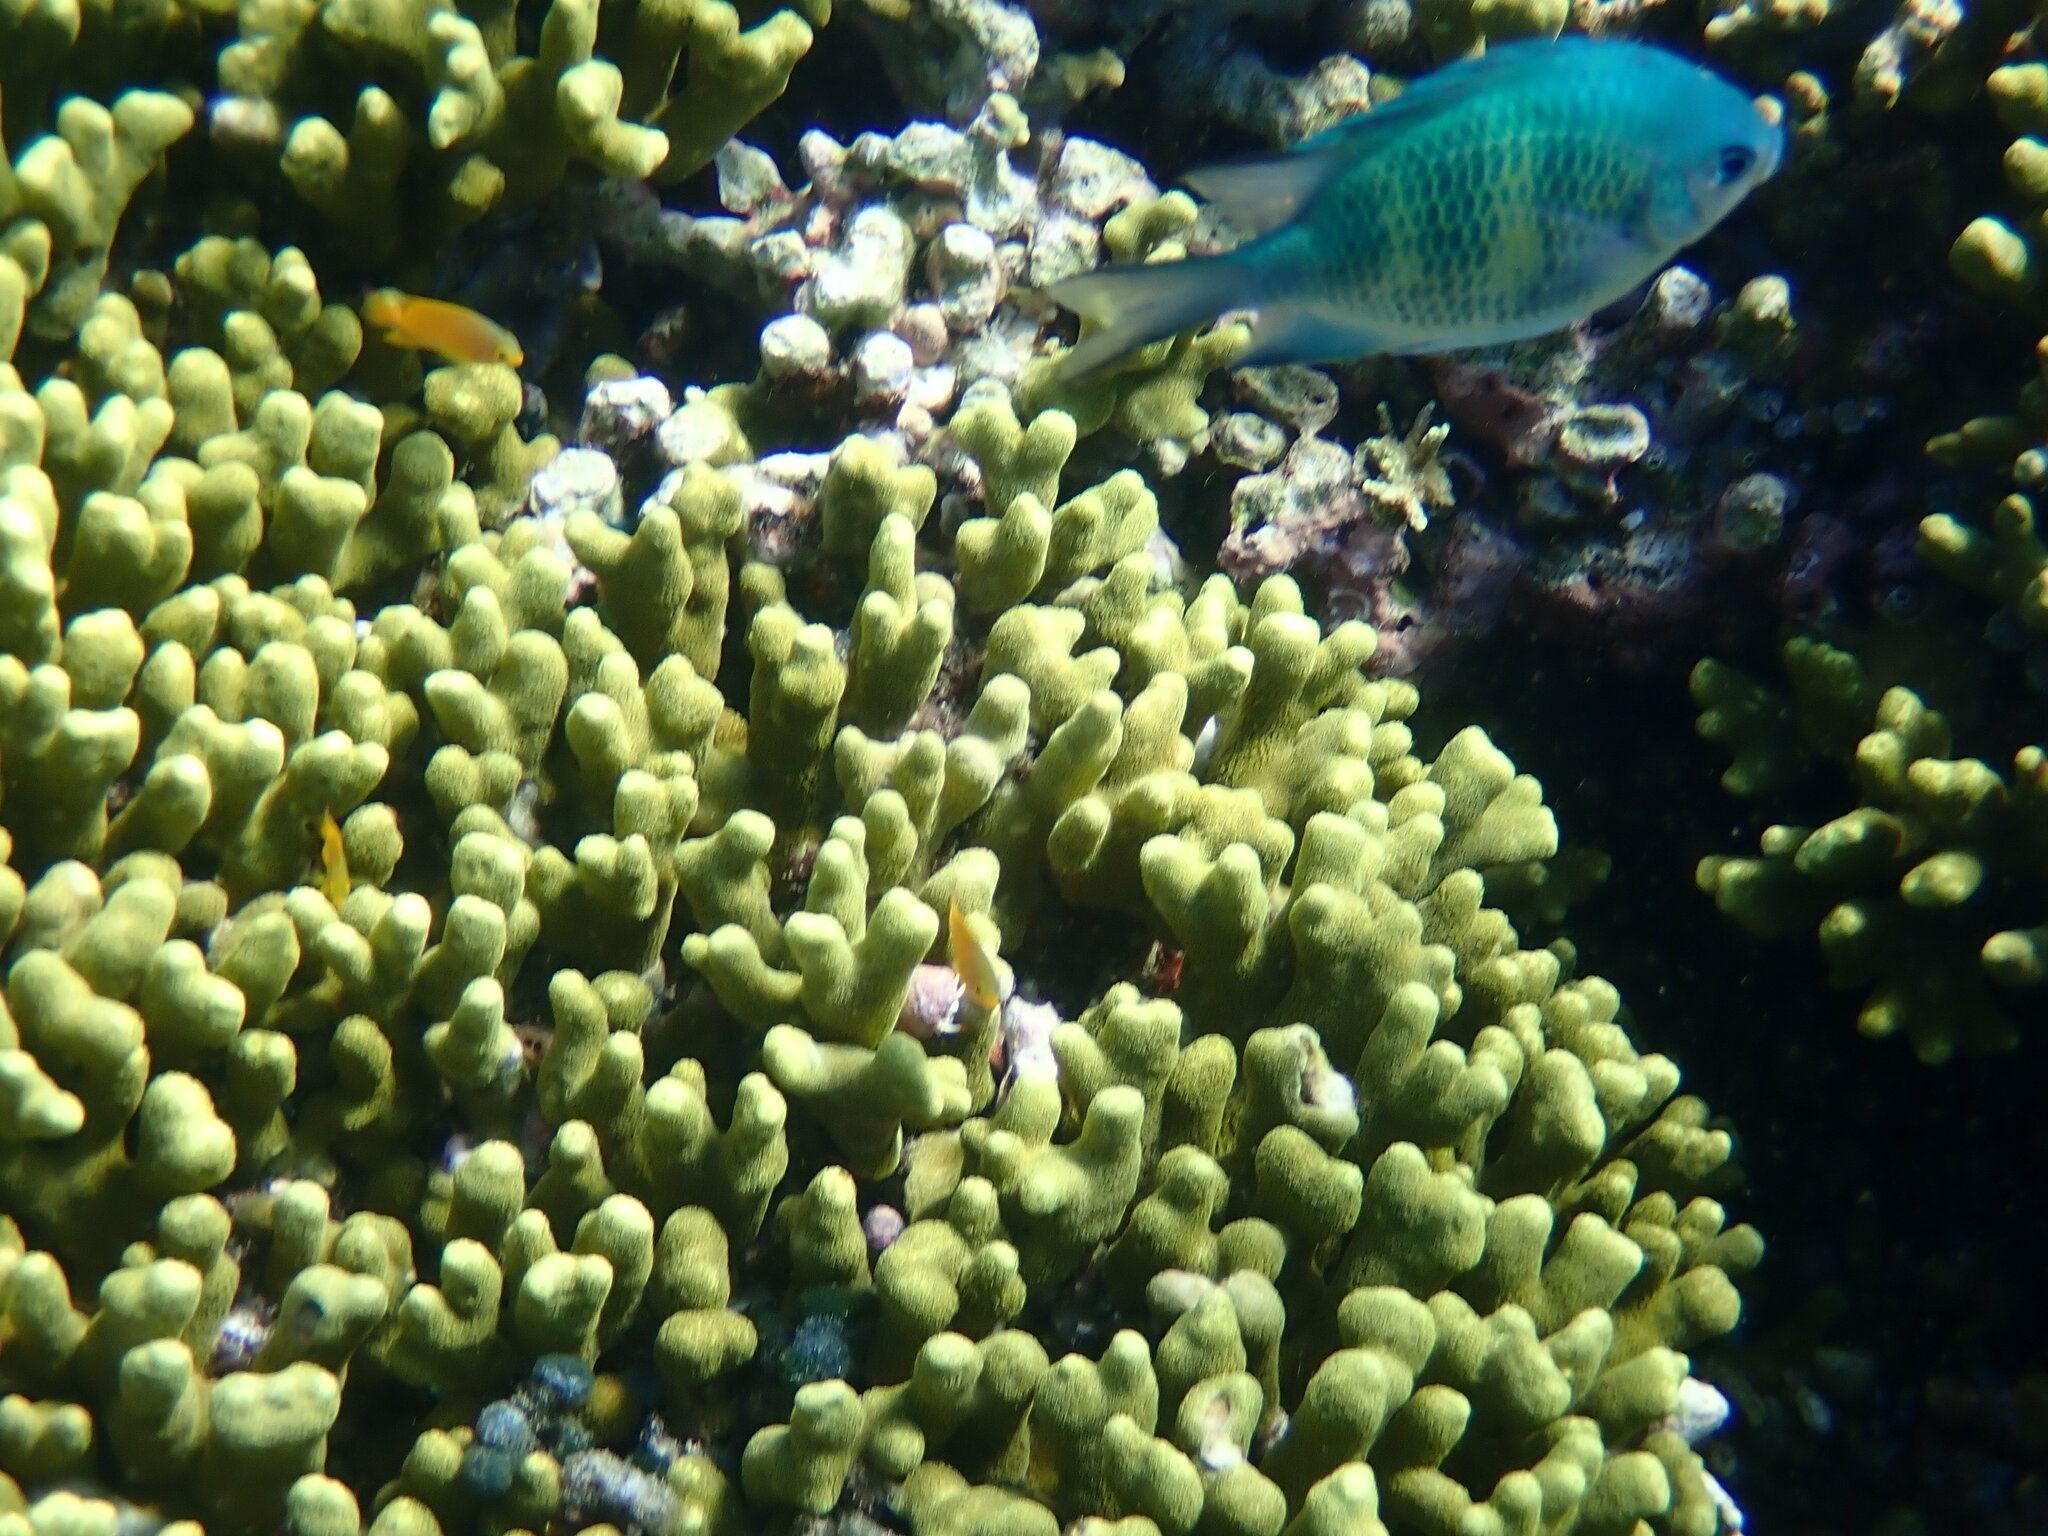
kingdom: Animalia
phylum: Chordata
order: Perciformes
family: Pomacentridae
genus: Amblyglyphidodon
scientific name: Amblyglyphidodon curacao
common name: Staghorn damsel
